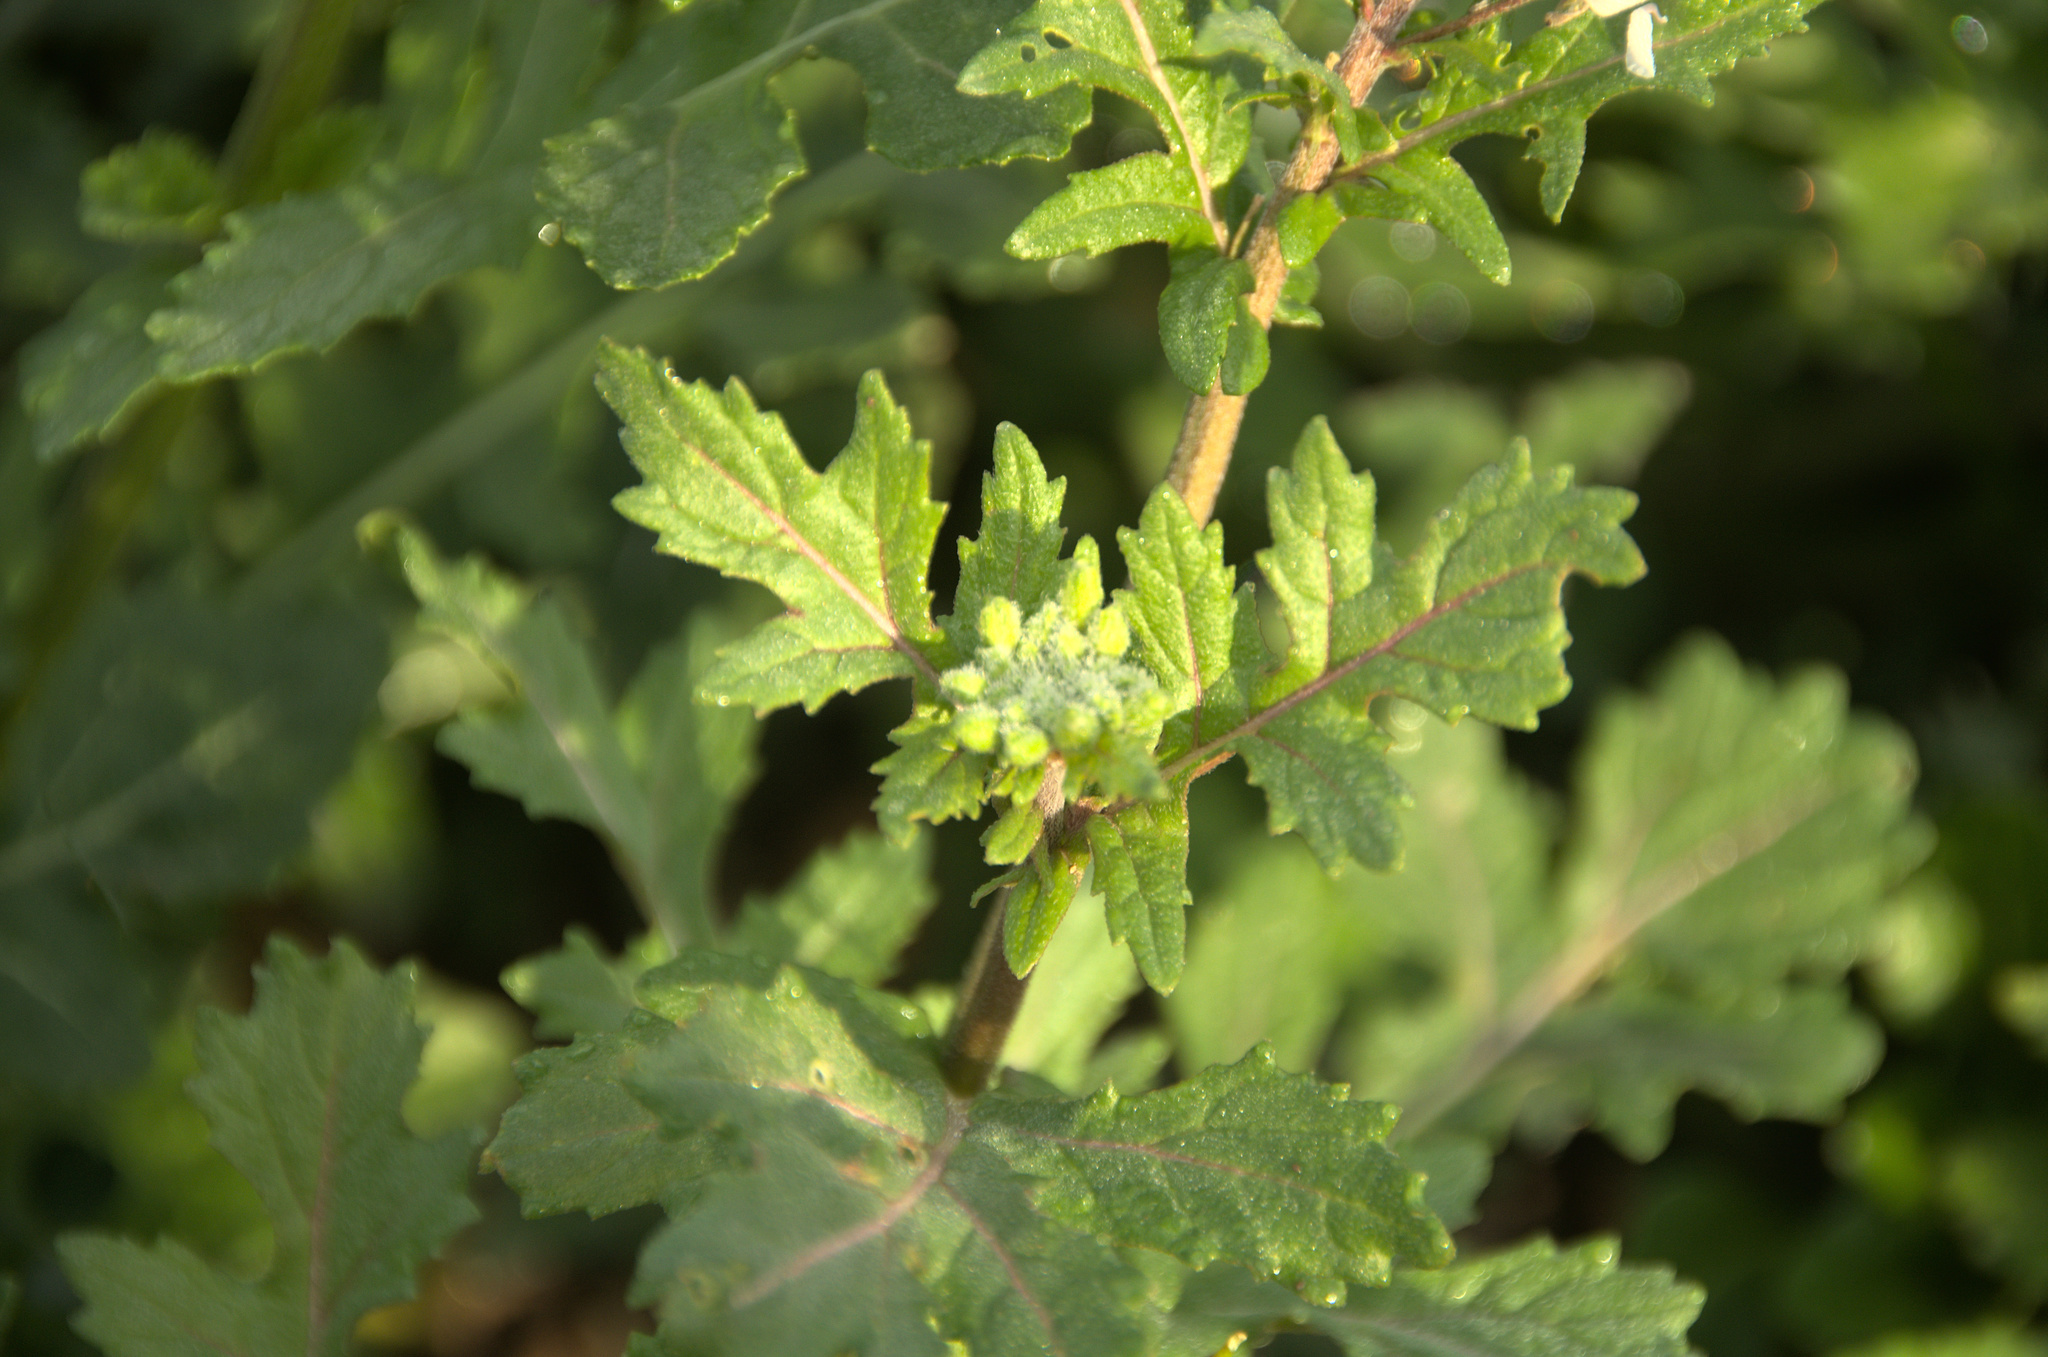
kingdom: Plantae
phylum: Tracheophyta
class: Magnoliopsida
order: Brassicales
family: Brassicaceae
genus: Diplotaxis
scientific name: Diplotaxis erucoides
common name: White rocket
